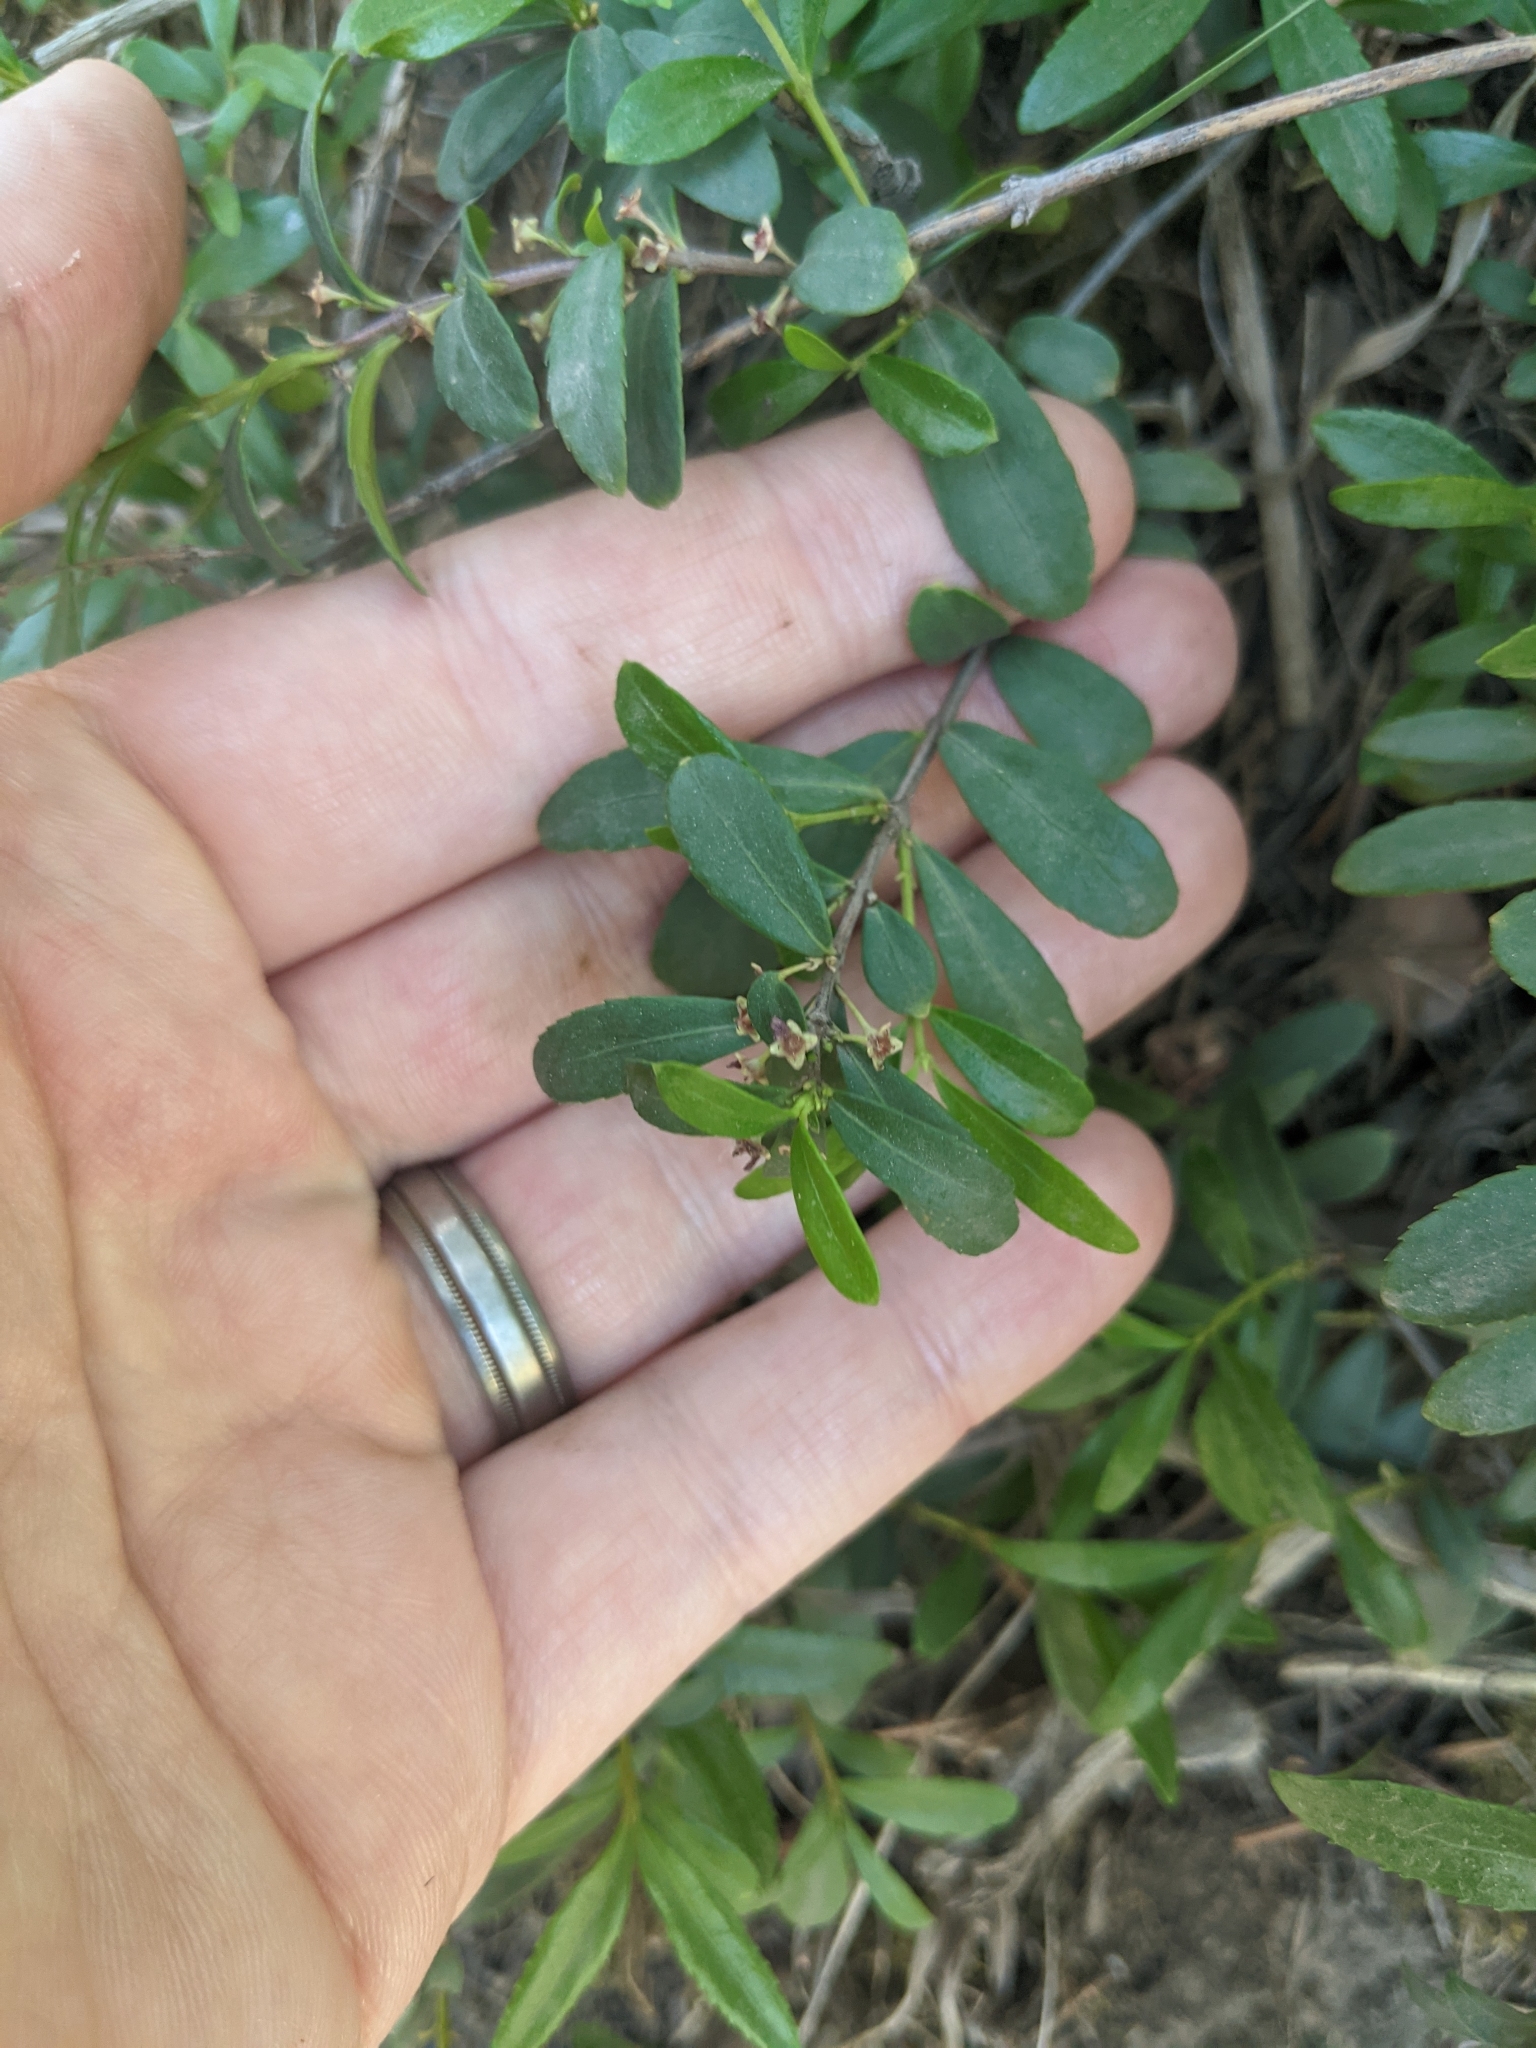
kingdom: Plantae
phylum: Tracheophyta
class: Magnoliopsida
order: Celastrales
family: Celastraceae
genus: Paxistima
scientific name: Paxistima myrsinites
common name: Mountain-lover
